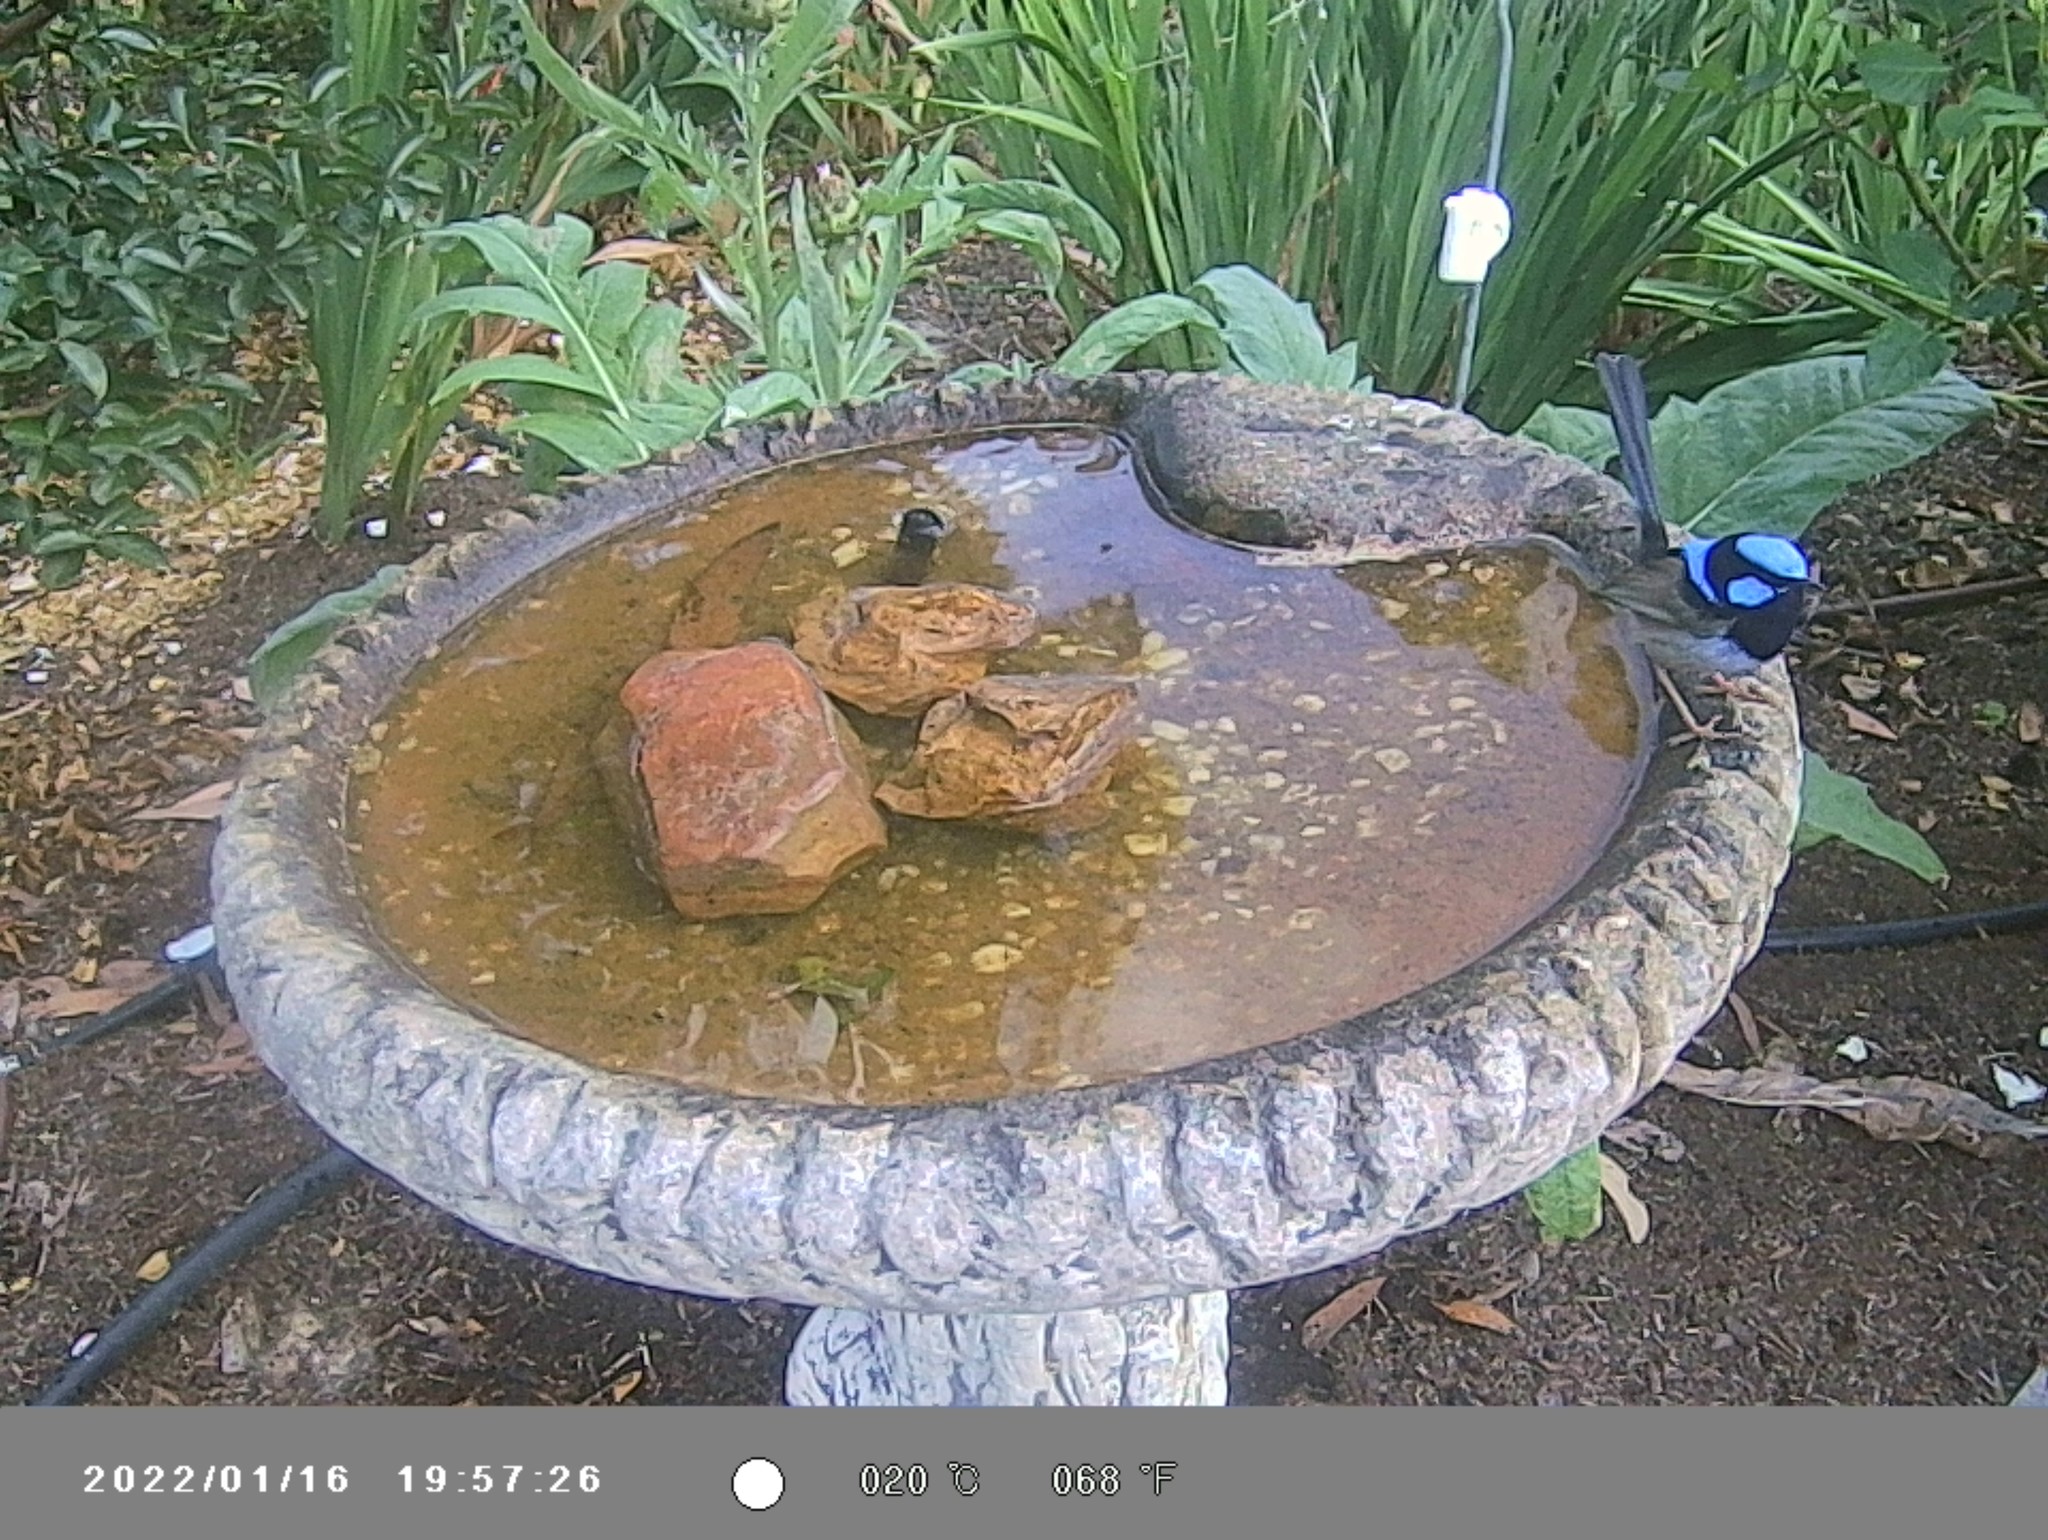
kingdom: Animalia
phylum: Chordata
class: Aves
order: Passeriformes
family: Maluridae
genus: Malurus
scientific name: Malurus cyaneus
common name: Superb fairywren
